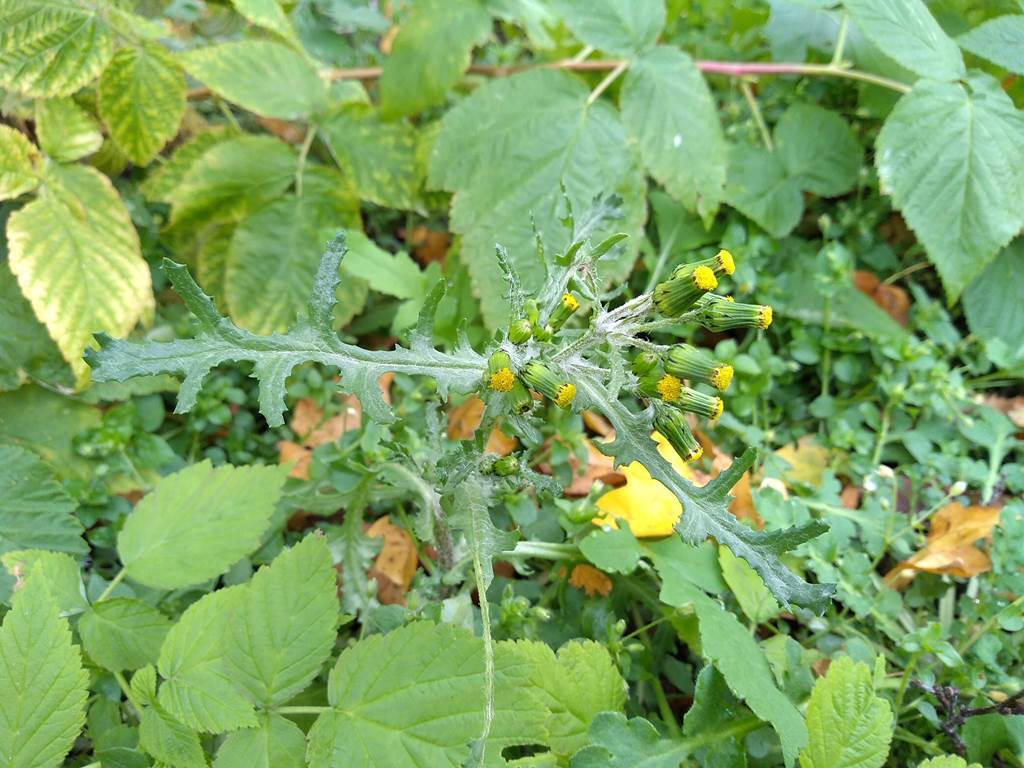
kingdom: Plantae
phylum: Tracheophyta
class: Magnoliopsida
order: Asterales
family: Asteraceae
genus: Senecio
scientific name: Senecio vulgaris
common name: Old-man-in-the-spring
